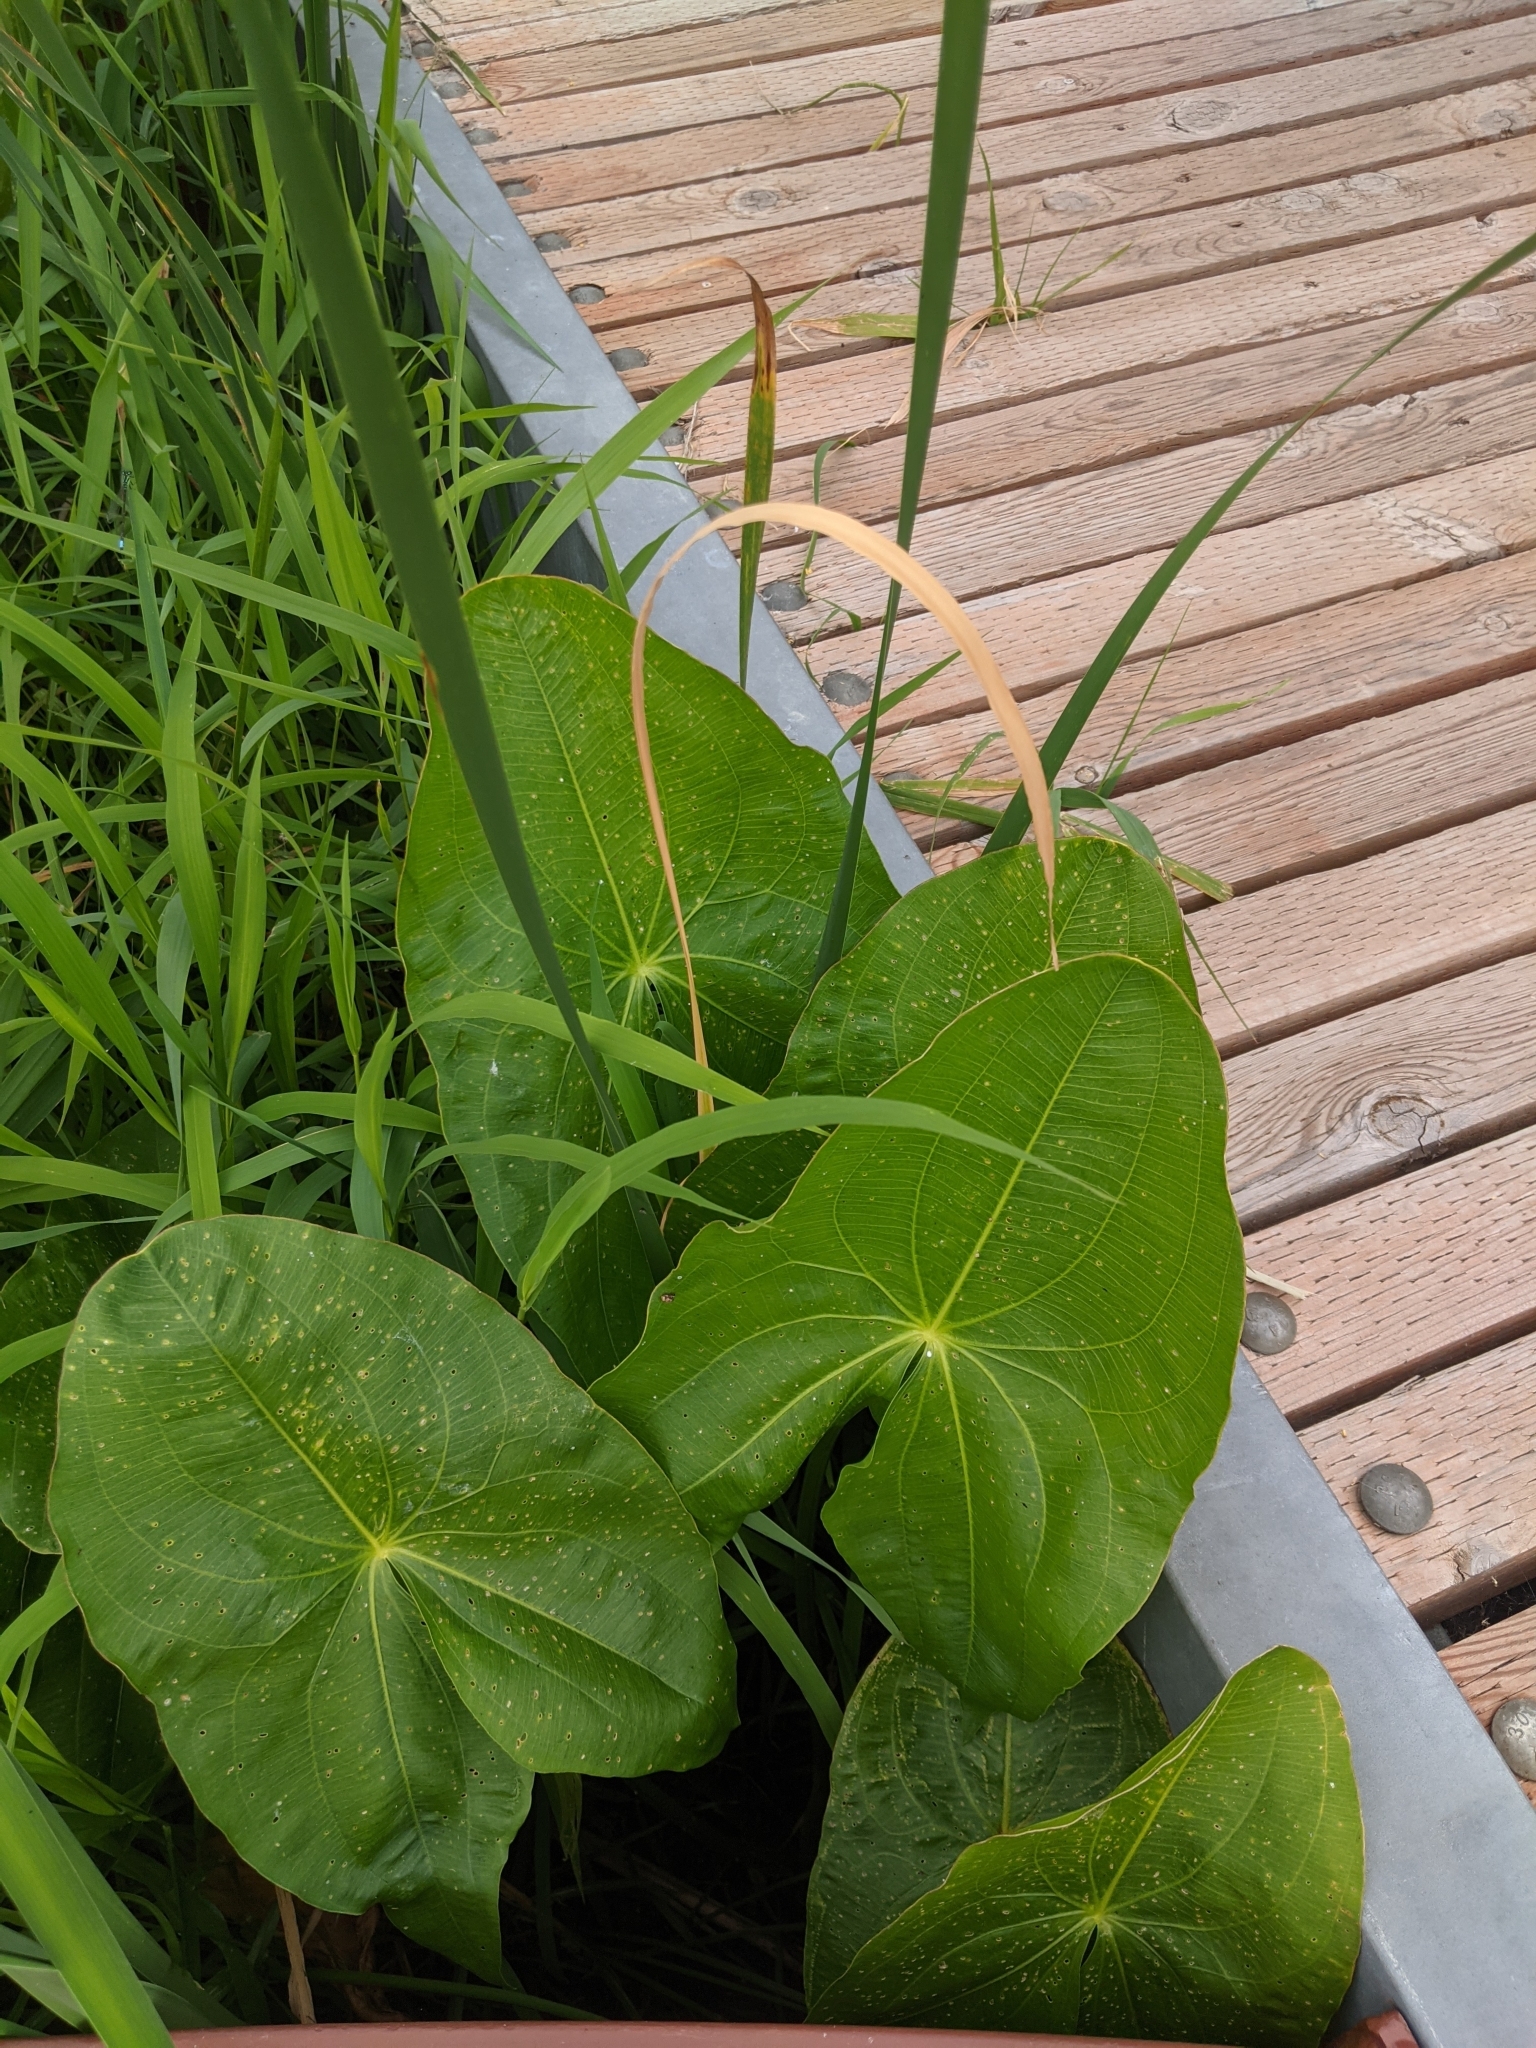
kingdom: Plantae
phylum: Tracheophyta
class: Liliopsida
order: Alismatales
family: Alismataceae
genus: Sagittaria
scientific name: Sagittaria latifolia
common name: Duck-potato
